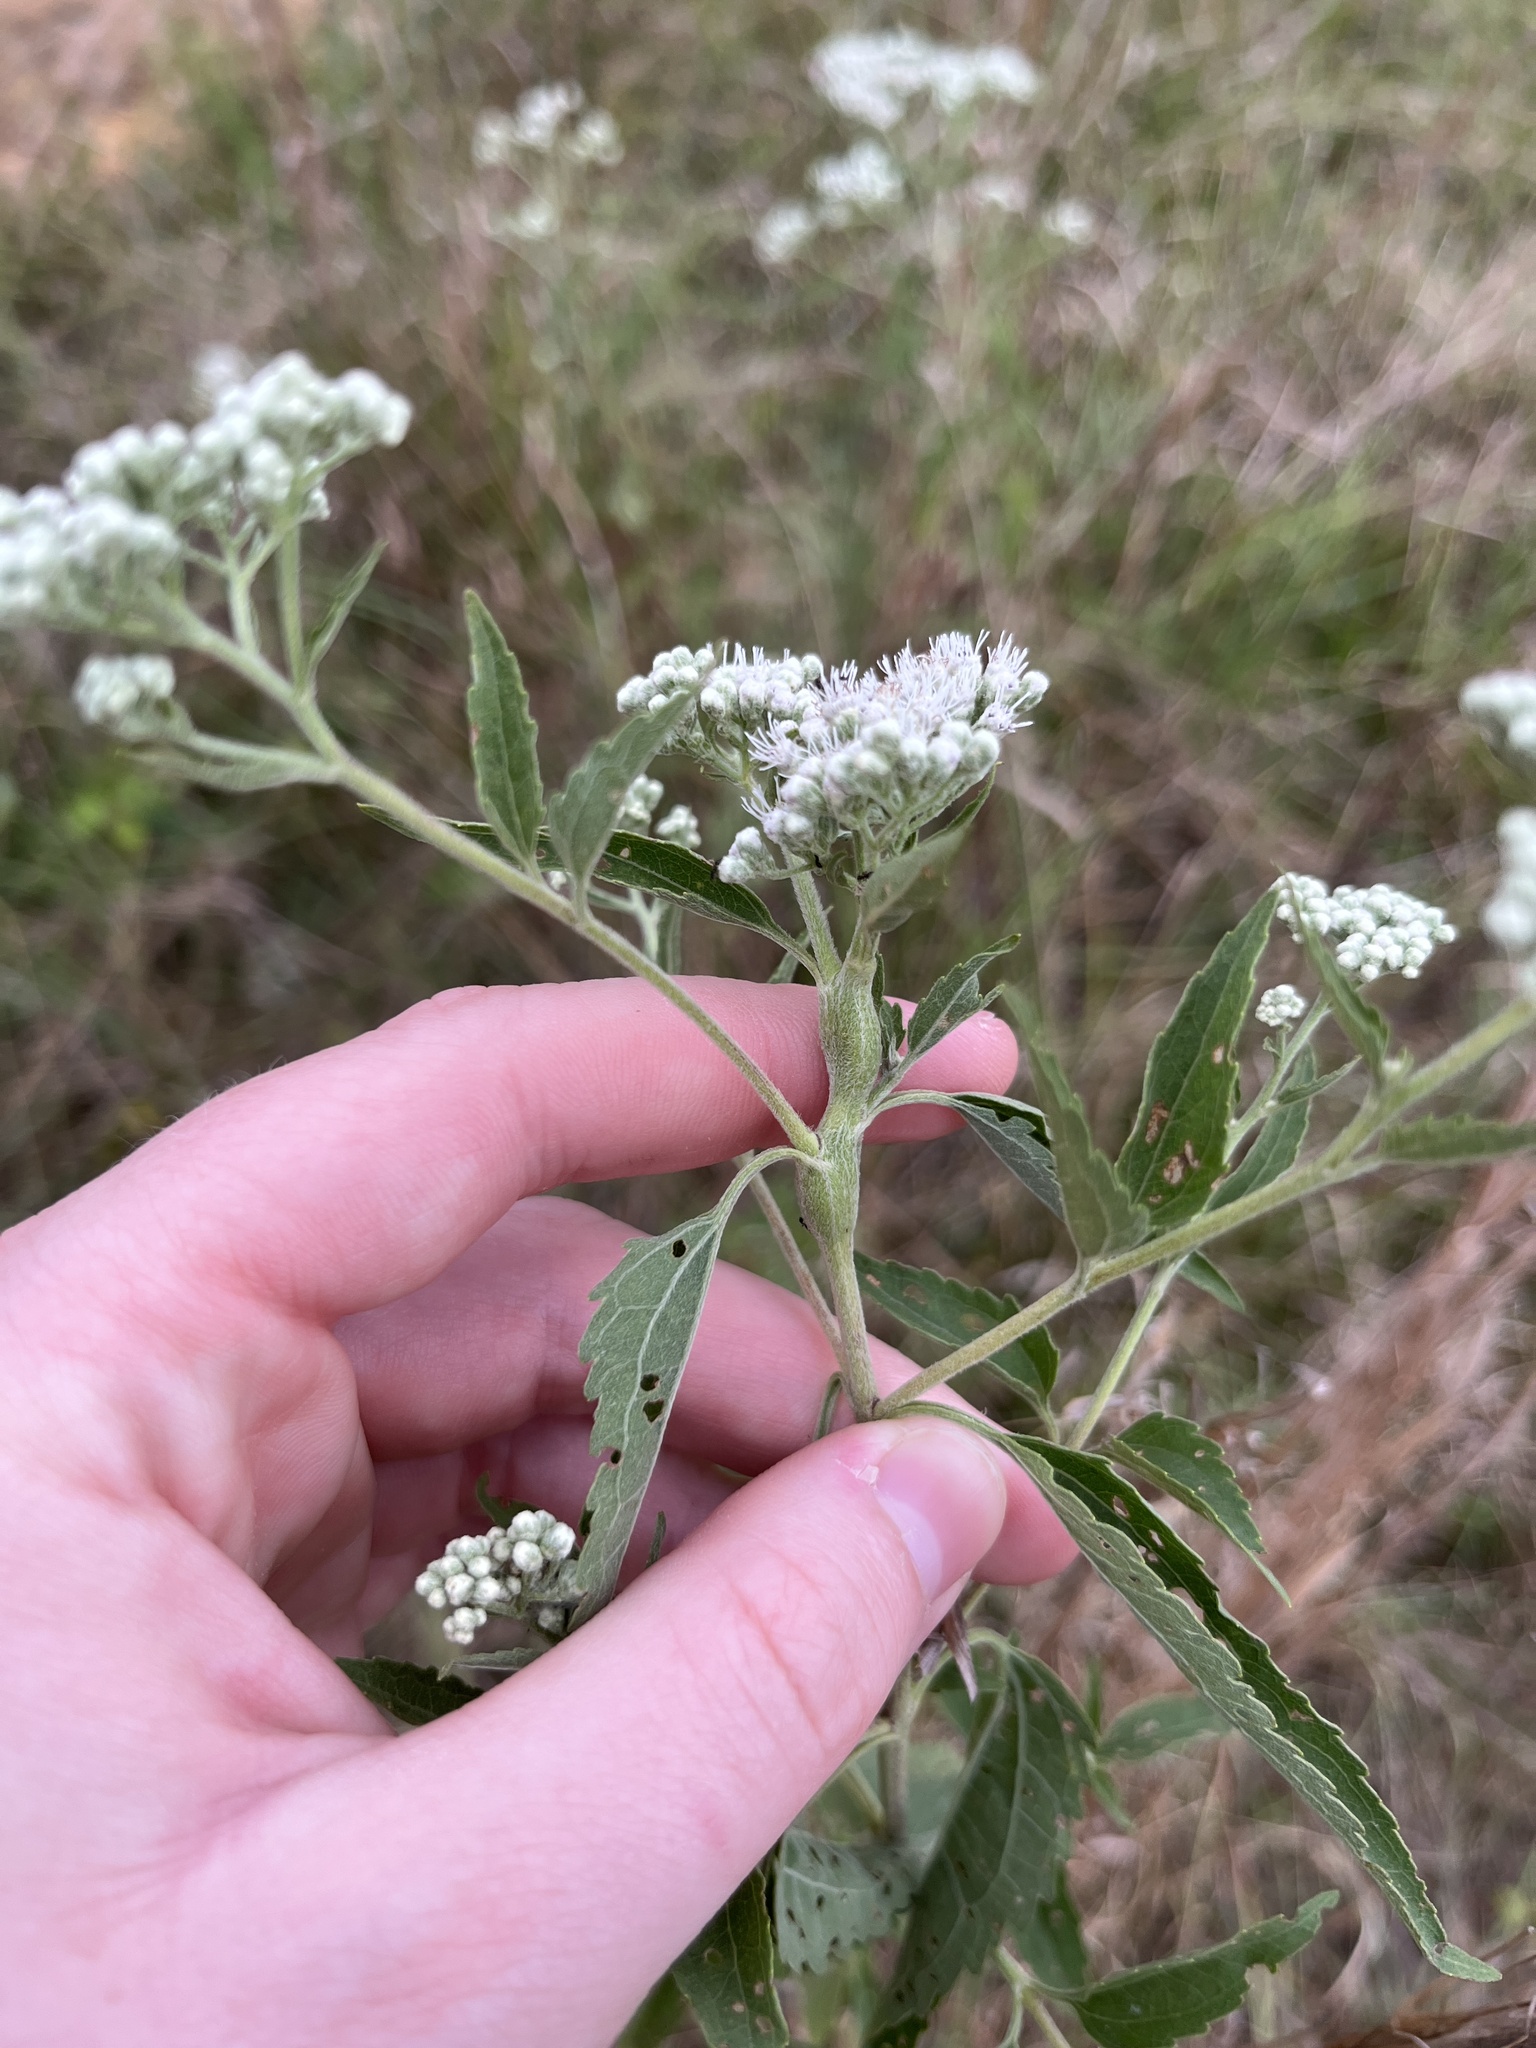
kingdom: Animalia
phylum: Arthropoda
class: Insecta
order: Diptera
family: Cecidomyiidae
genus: Neolasioptera
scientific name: Neolasioptera perfoliata
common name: Boneset stem midge
